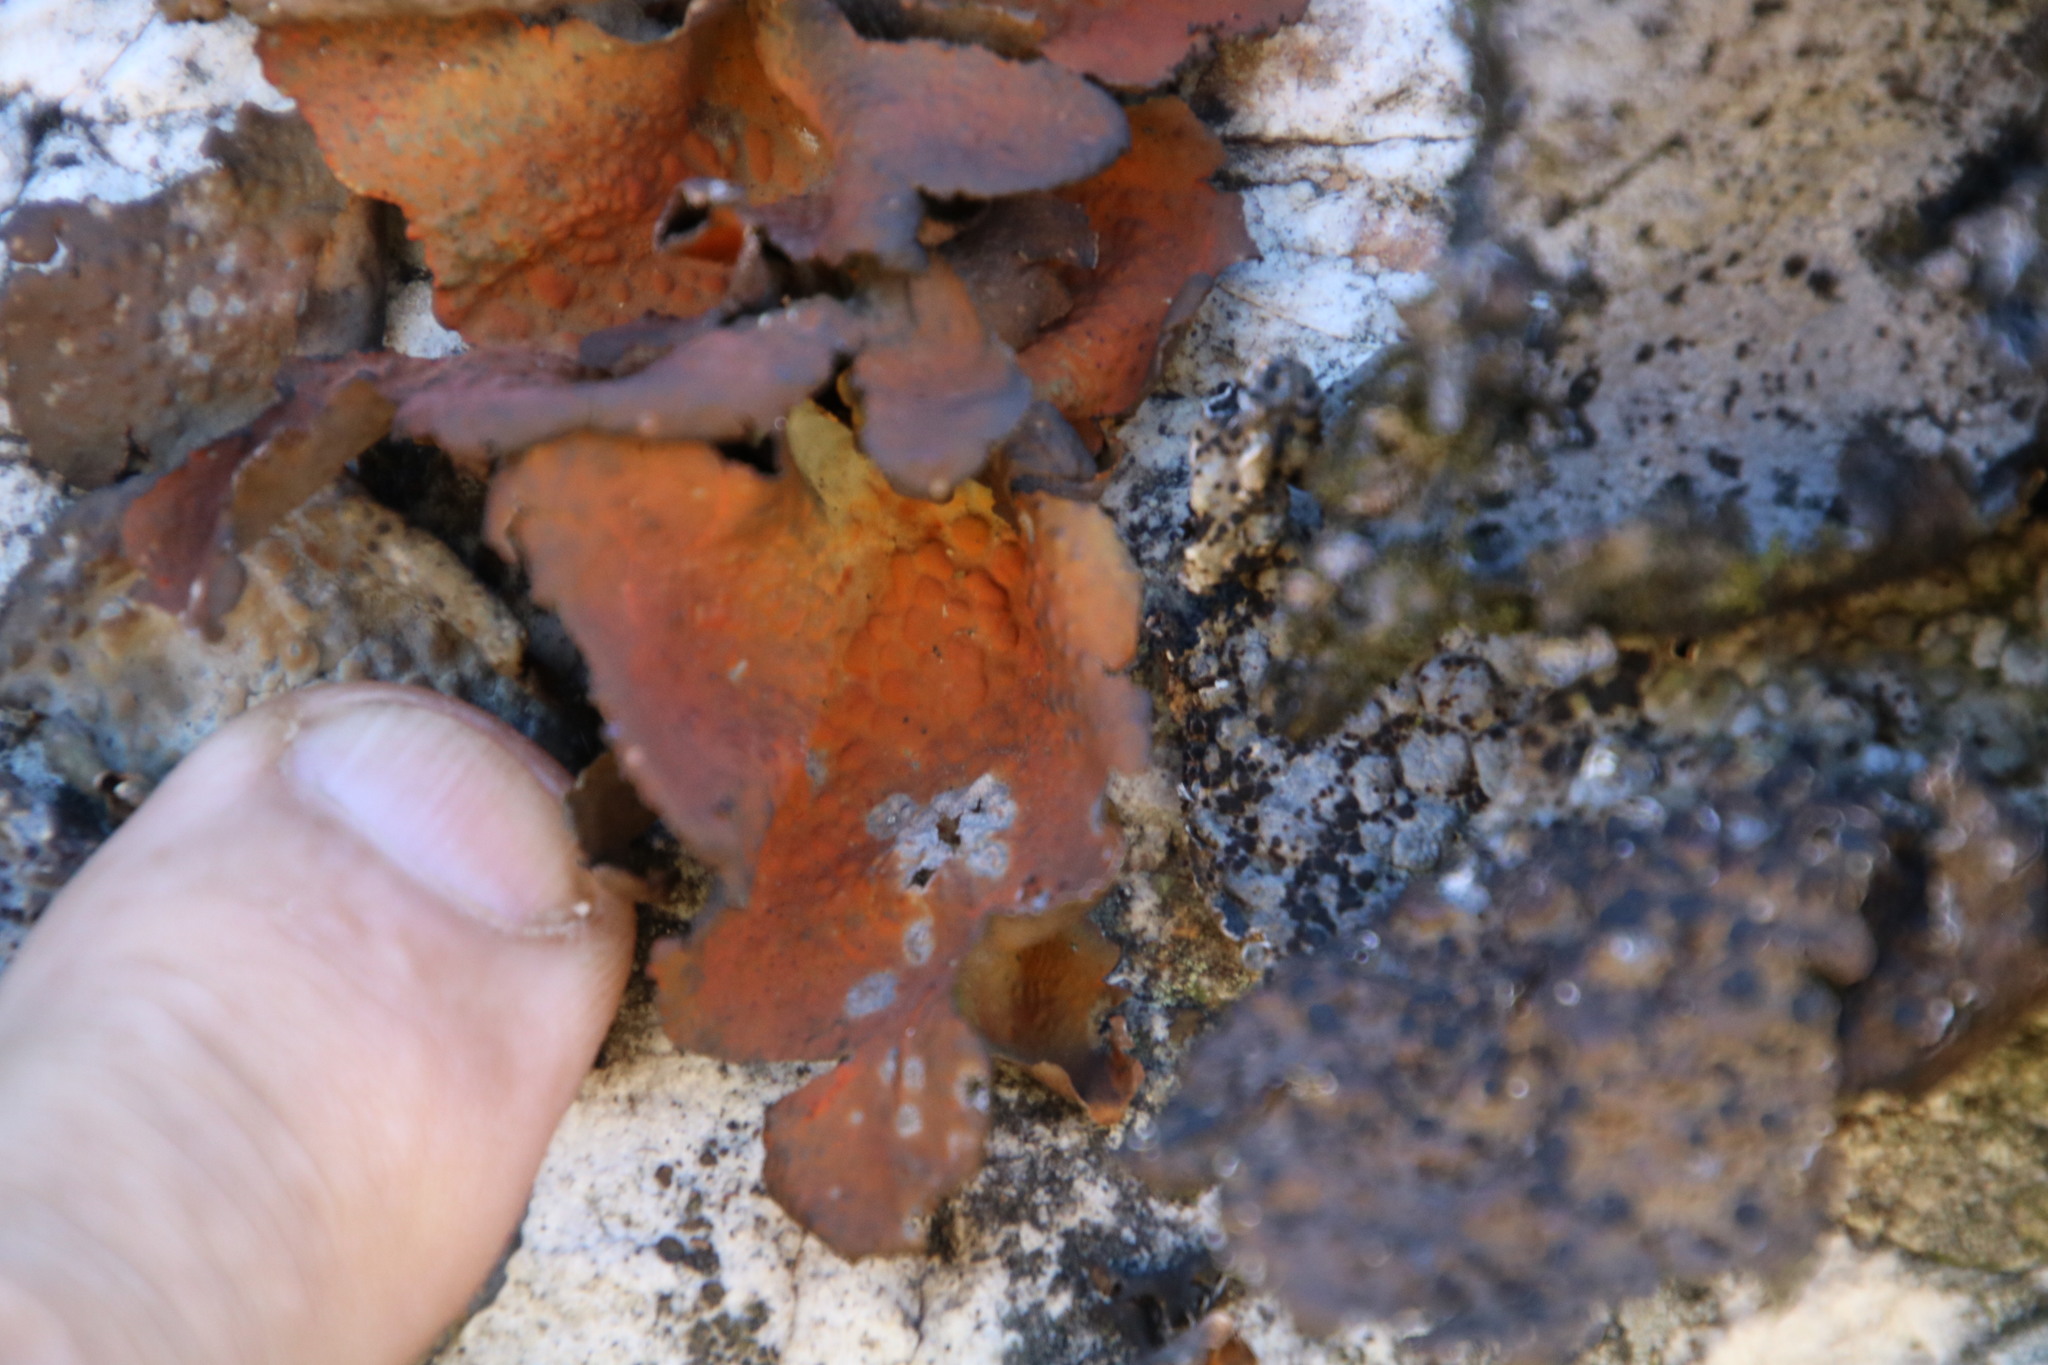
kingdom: Fungi
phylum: Ascomycota
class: Lecanoromycetes
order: Umbilicariales
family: Umbilicariaceae
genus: Lasallia
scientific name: Lasallia rubiginosa
